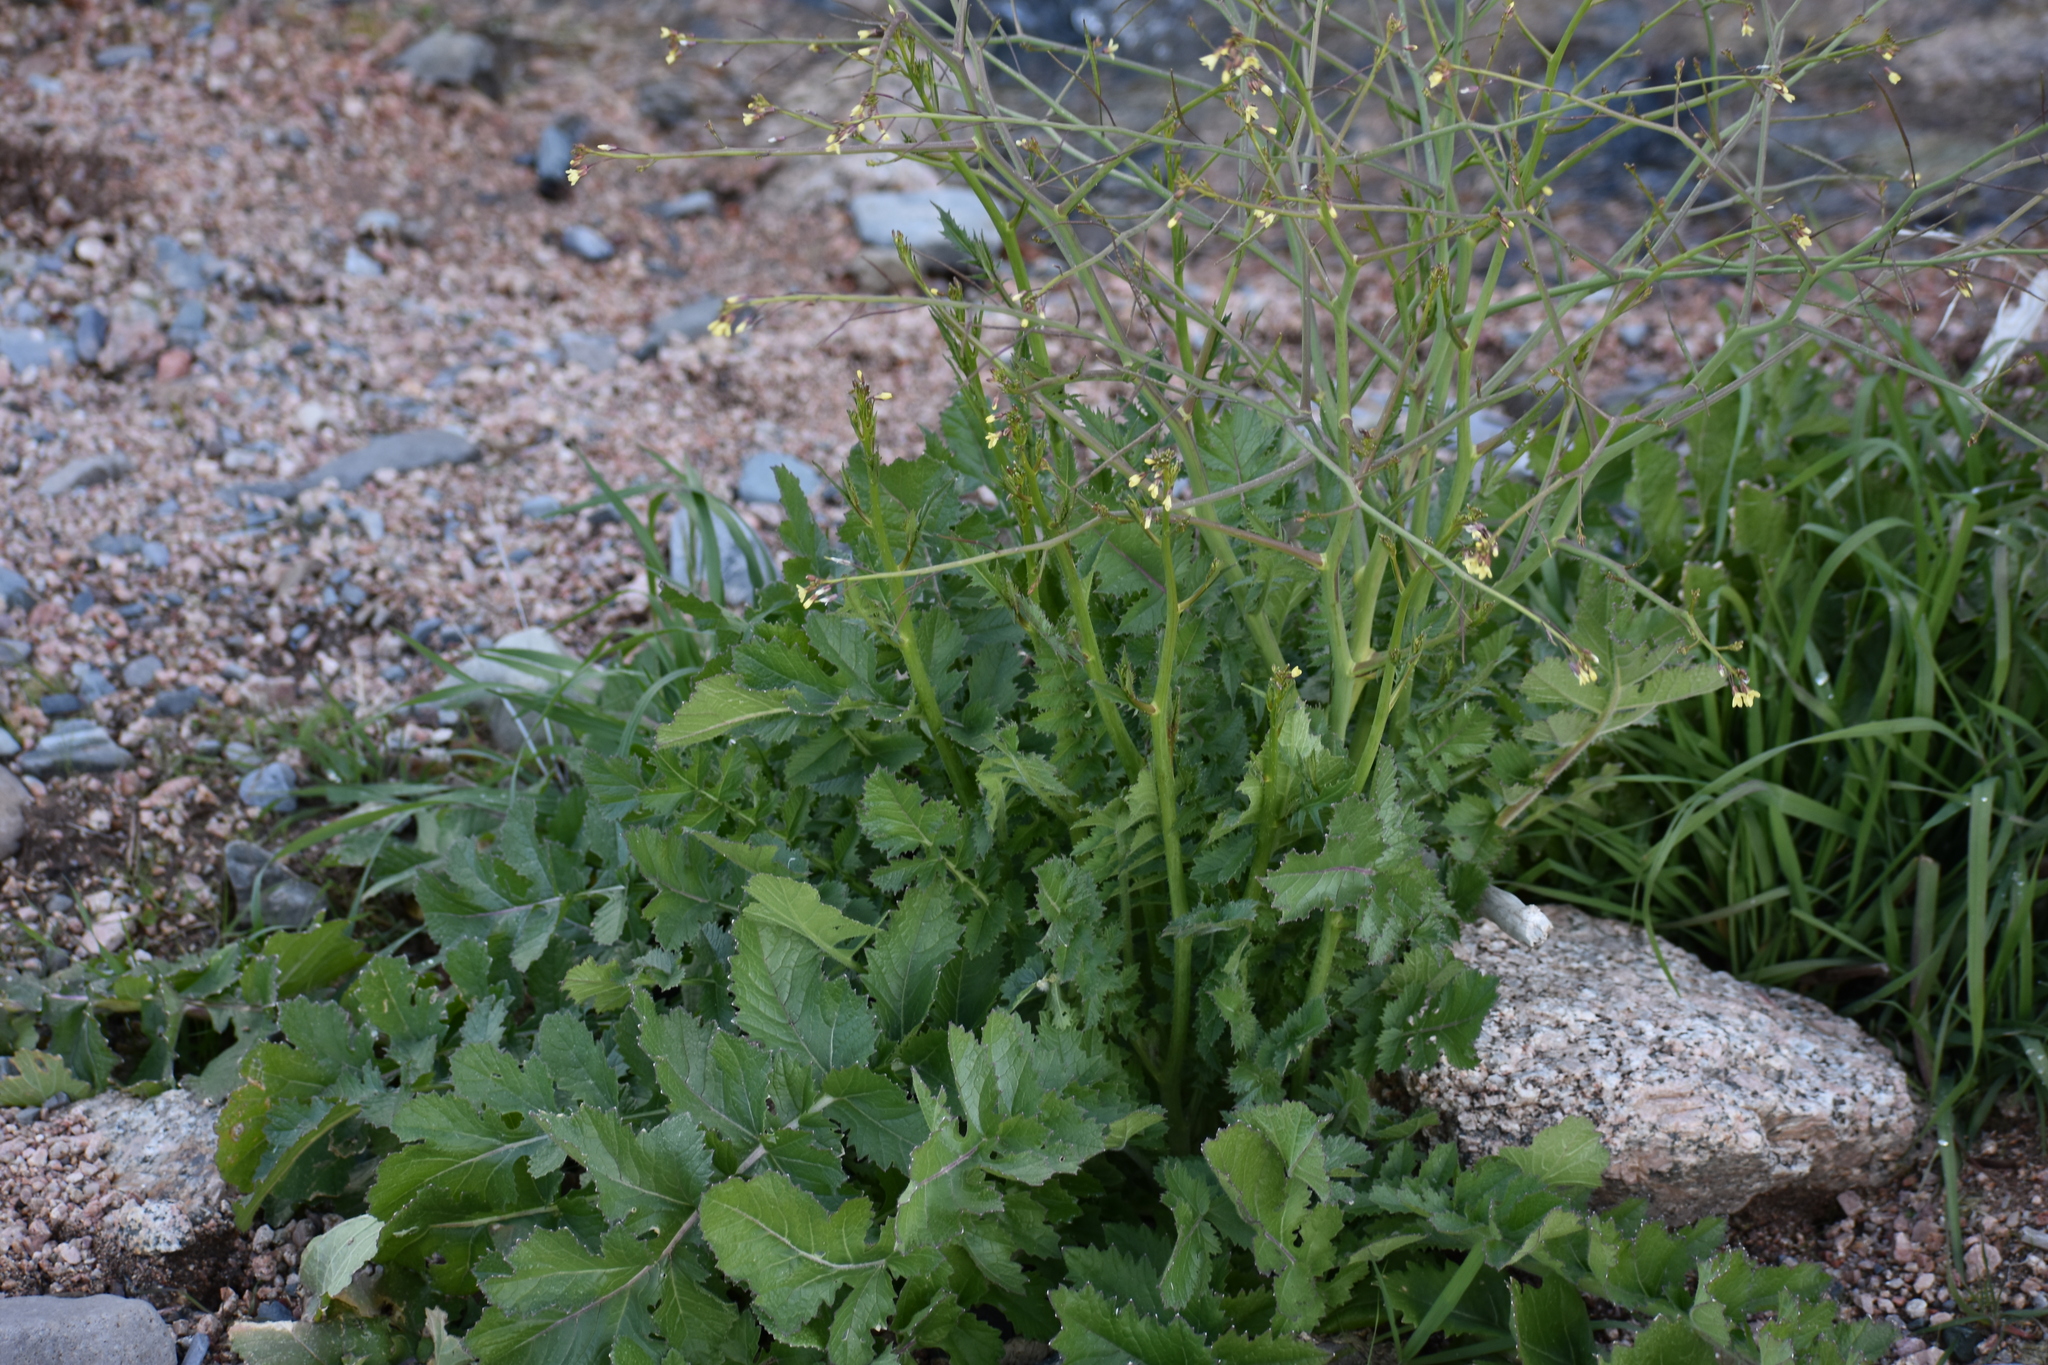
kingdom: Plantae
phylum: Tracheophyta
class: Magnoliopsida
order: Brassicales
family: Brassicaceae
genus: Brassica
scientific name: Brassica tournefortii
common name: Pale cabbage
